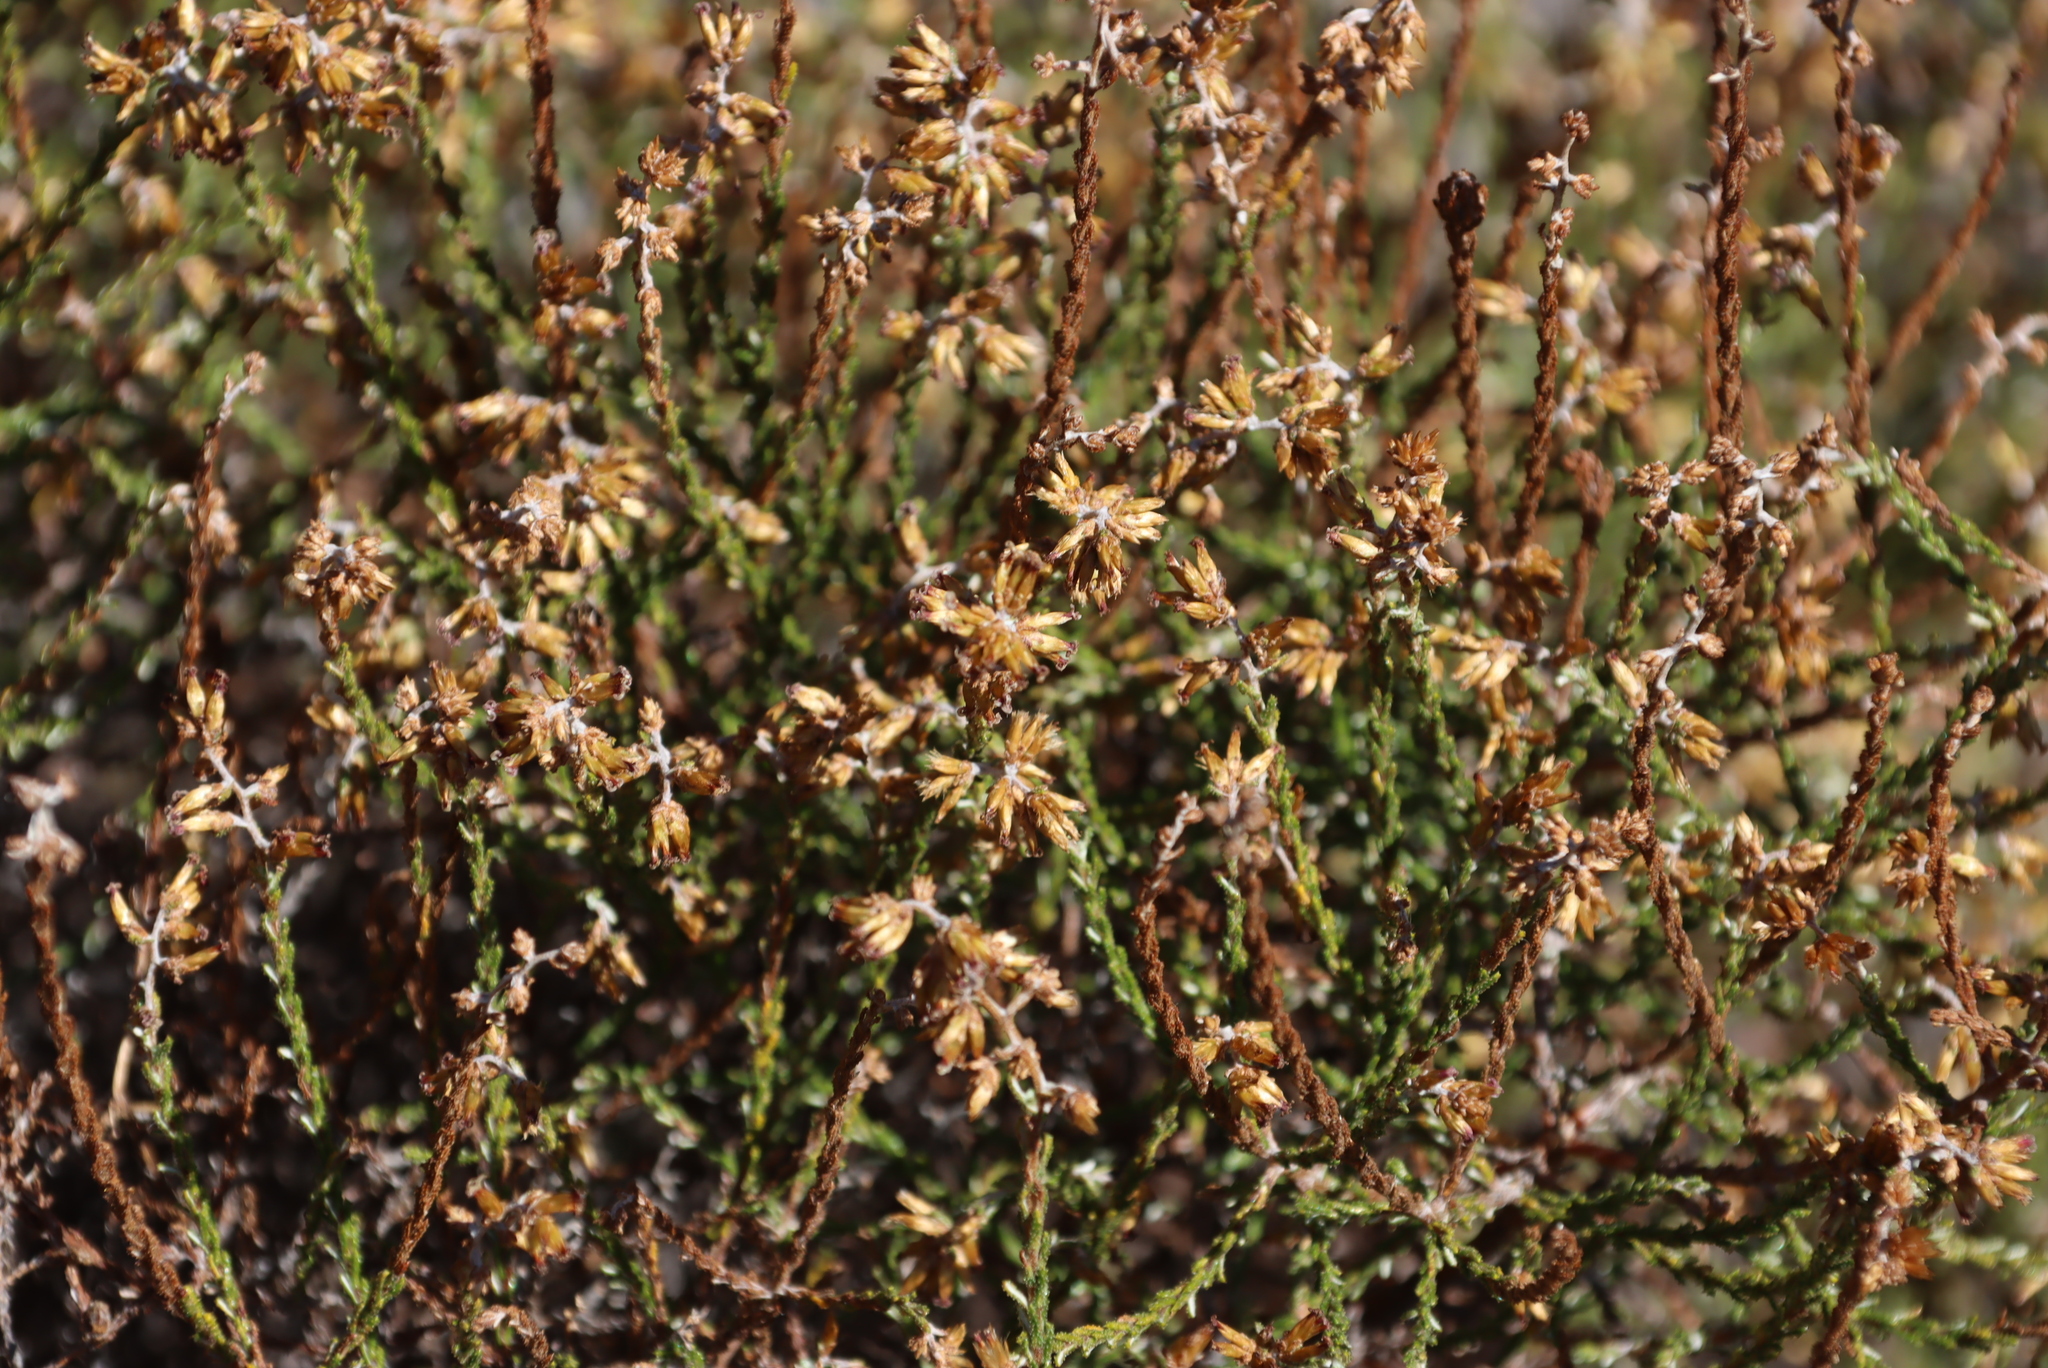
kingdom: Plantae
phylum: Tracheophyta
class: Magnoliopsida
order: Asterales
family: Asteraceae
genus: Myrovernix
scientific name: Myrovernix scaber
